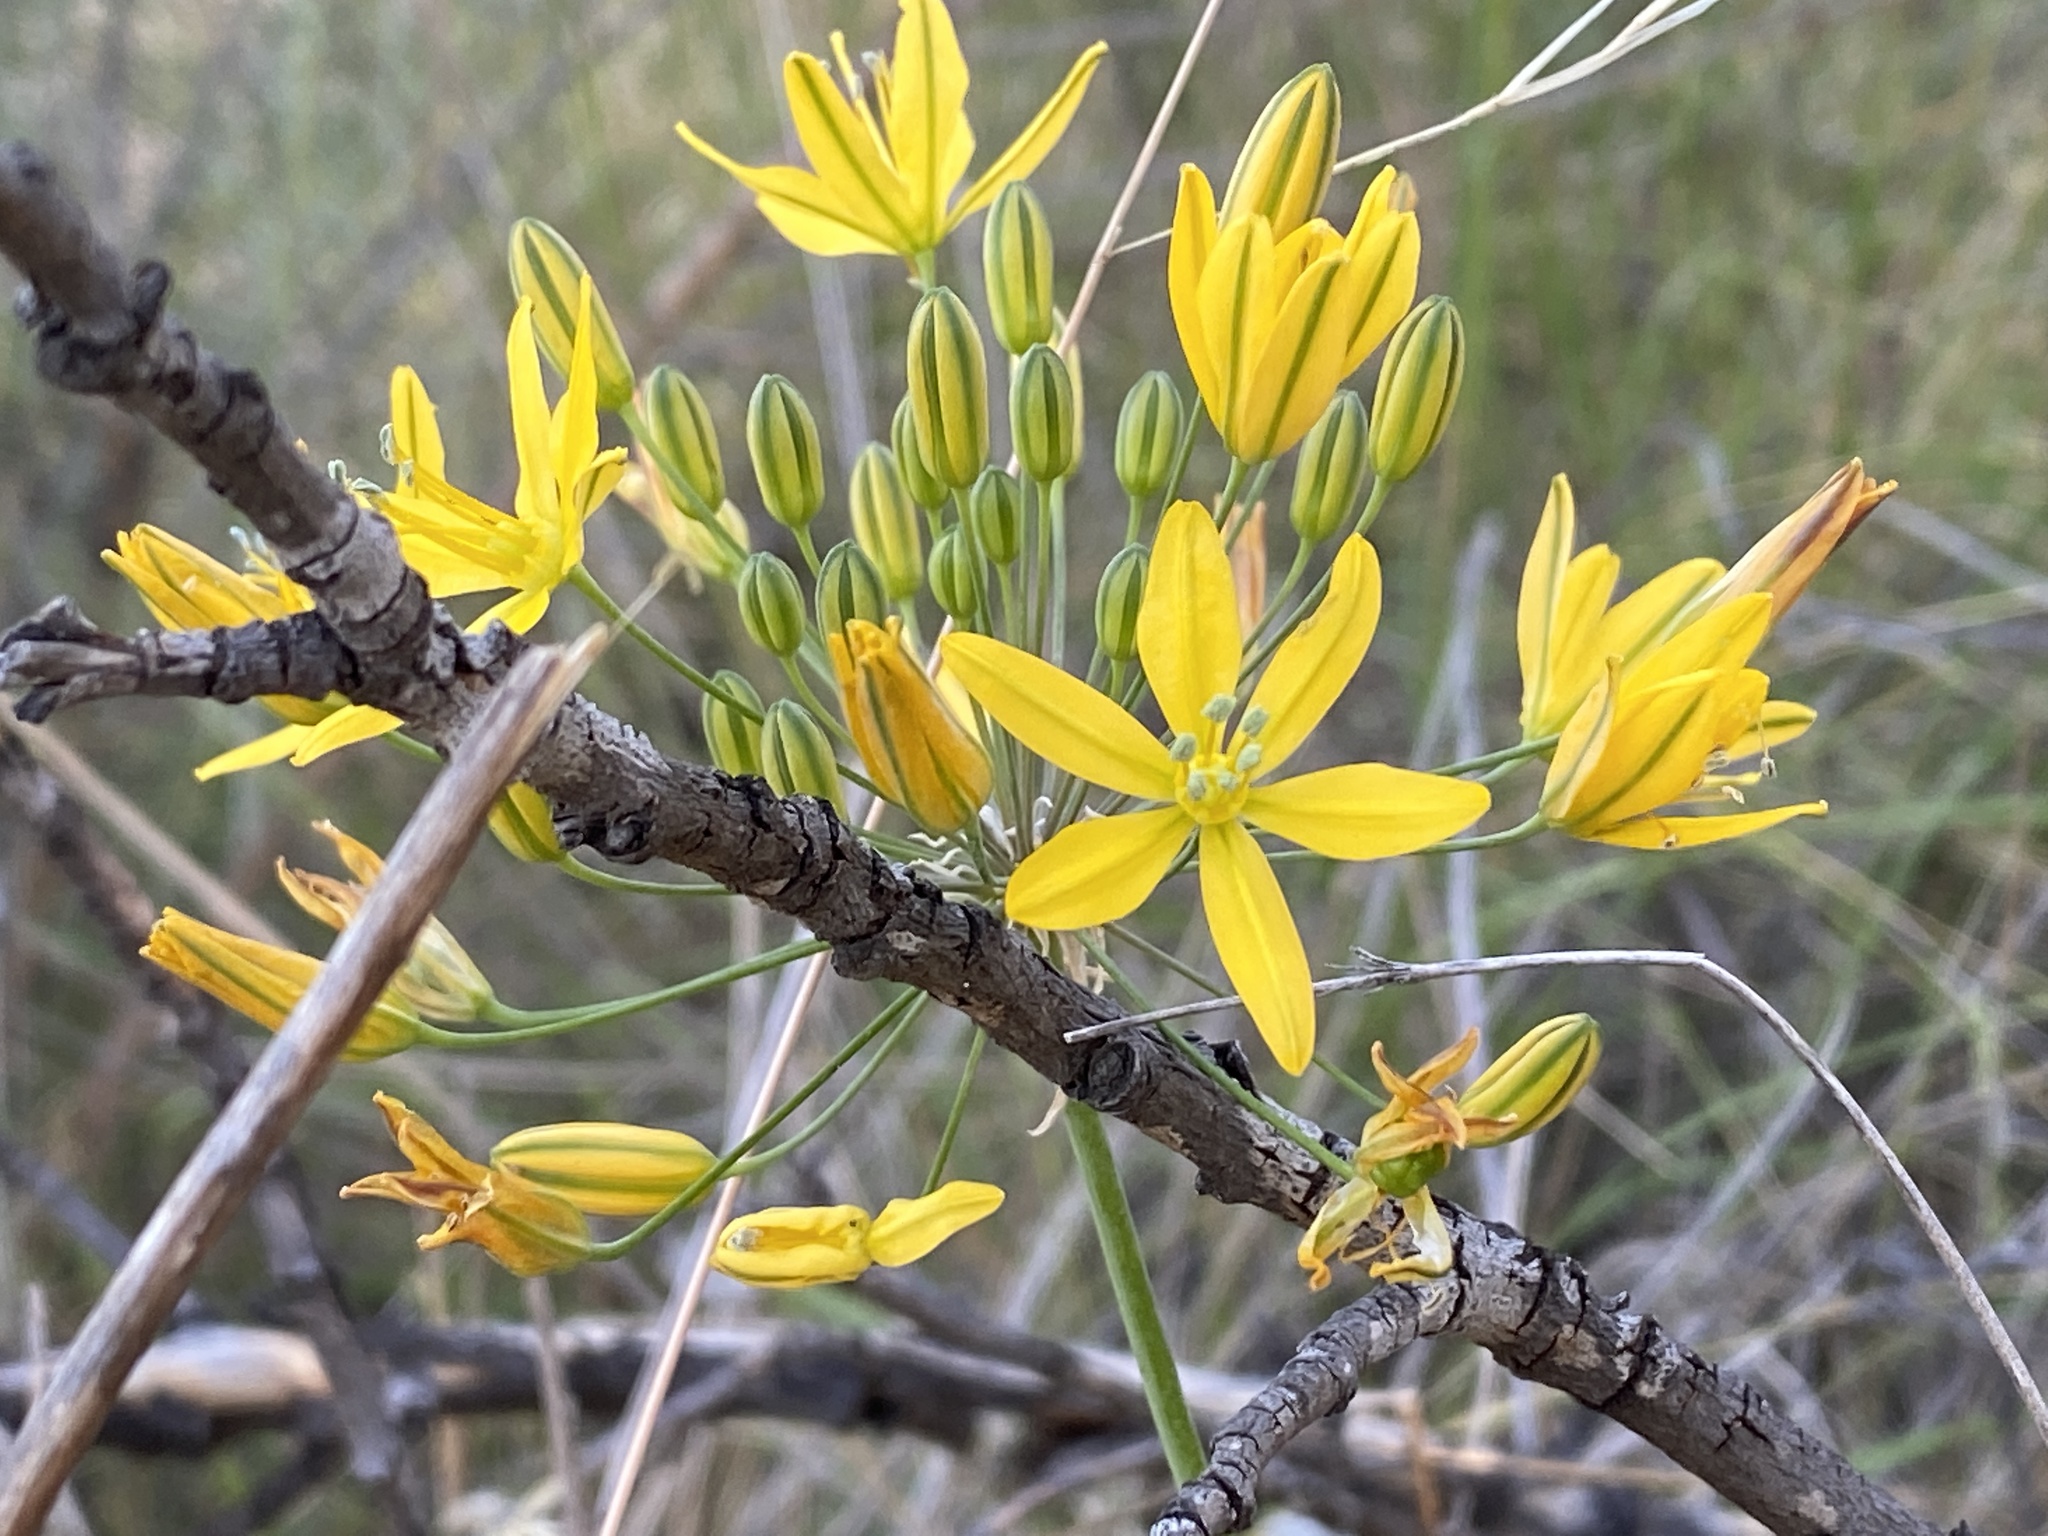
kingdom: Plantae
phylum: Tracheophyta
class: Liliopsida
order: Asparagales
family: Asparagaceae
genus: Bloomeria
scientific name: Bloomeria crocea
